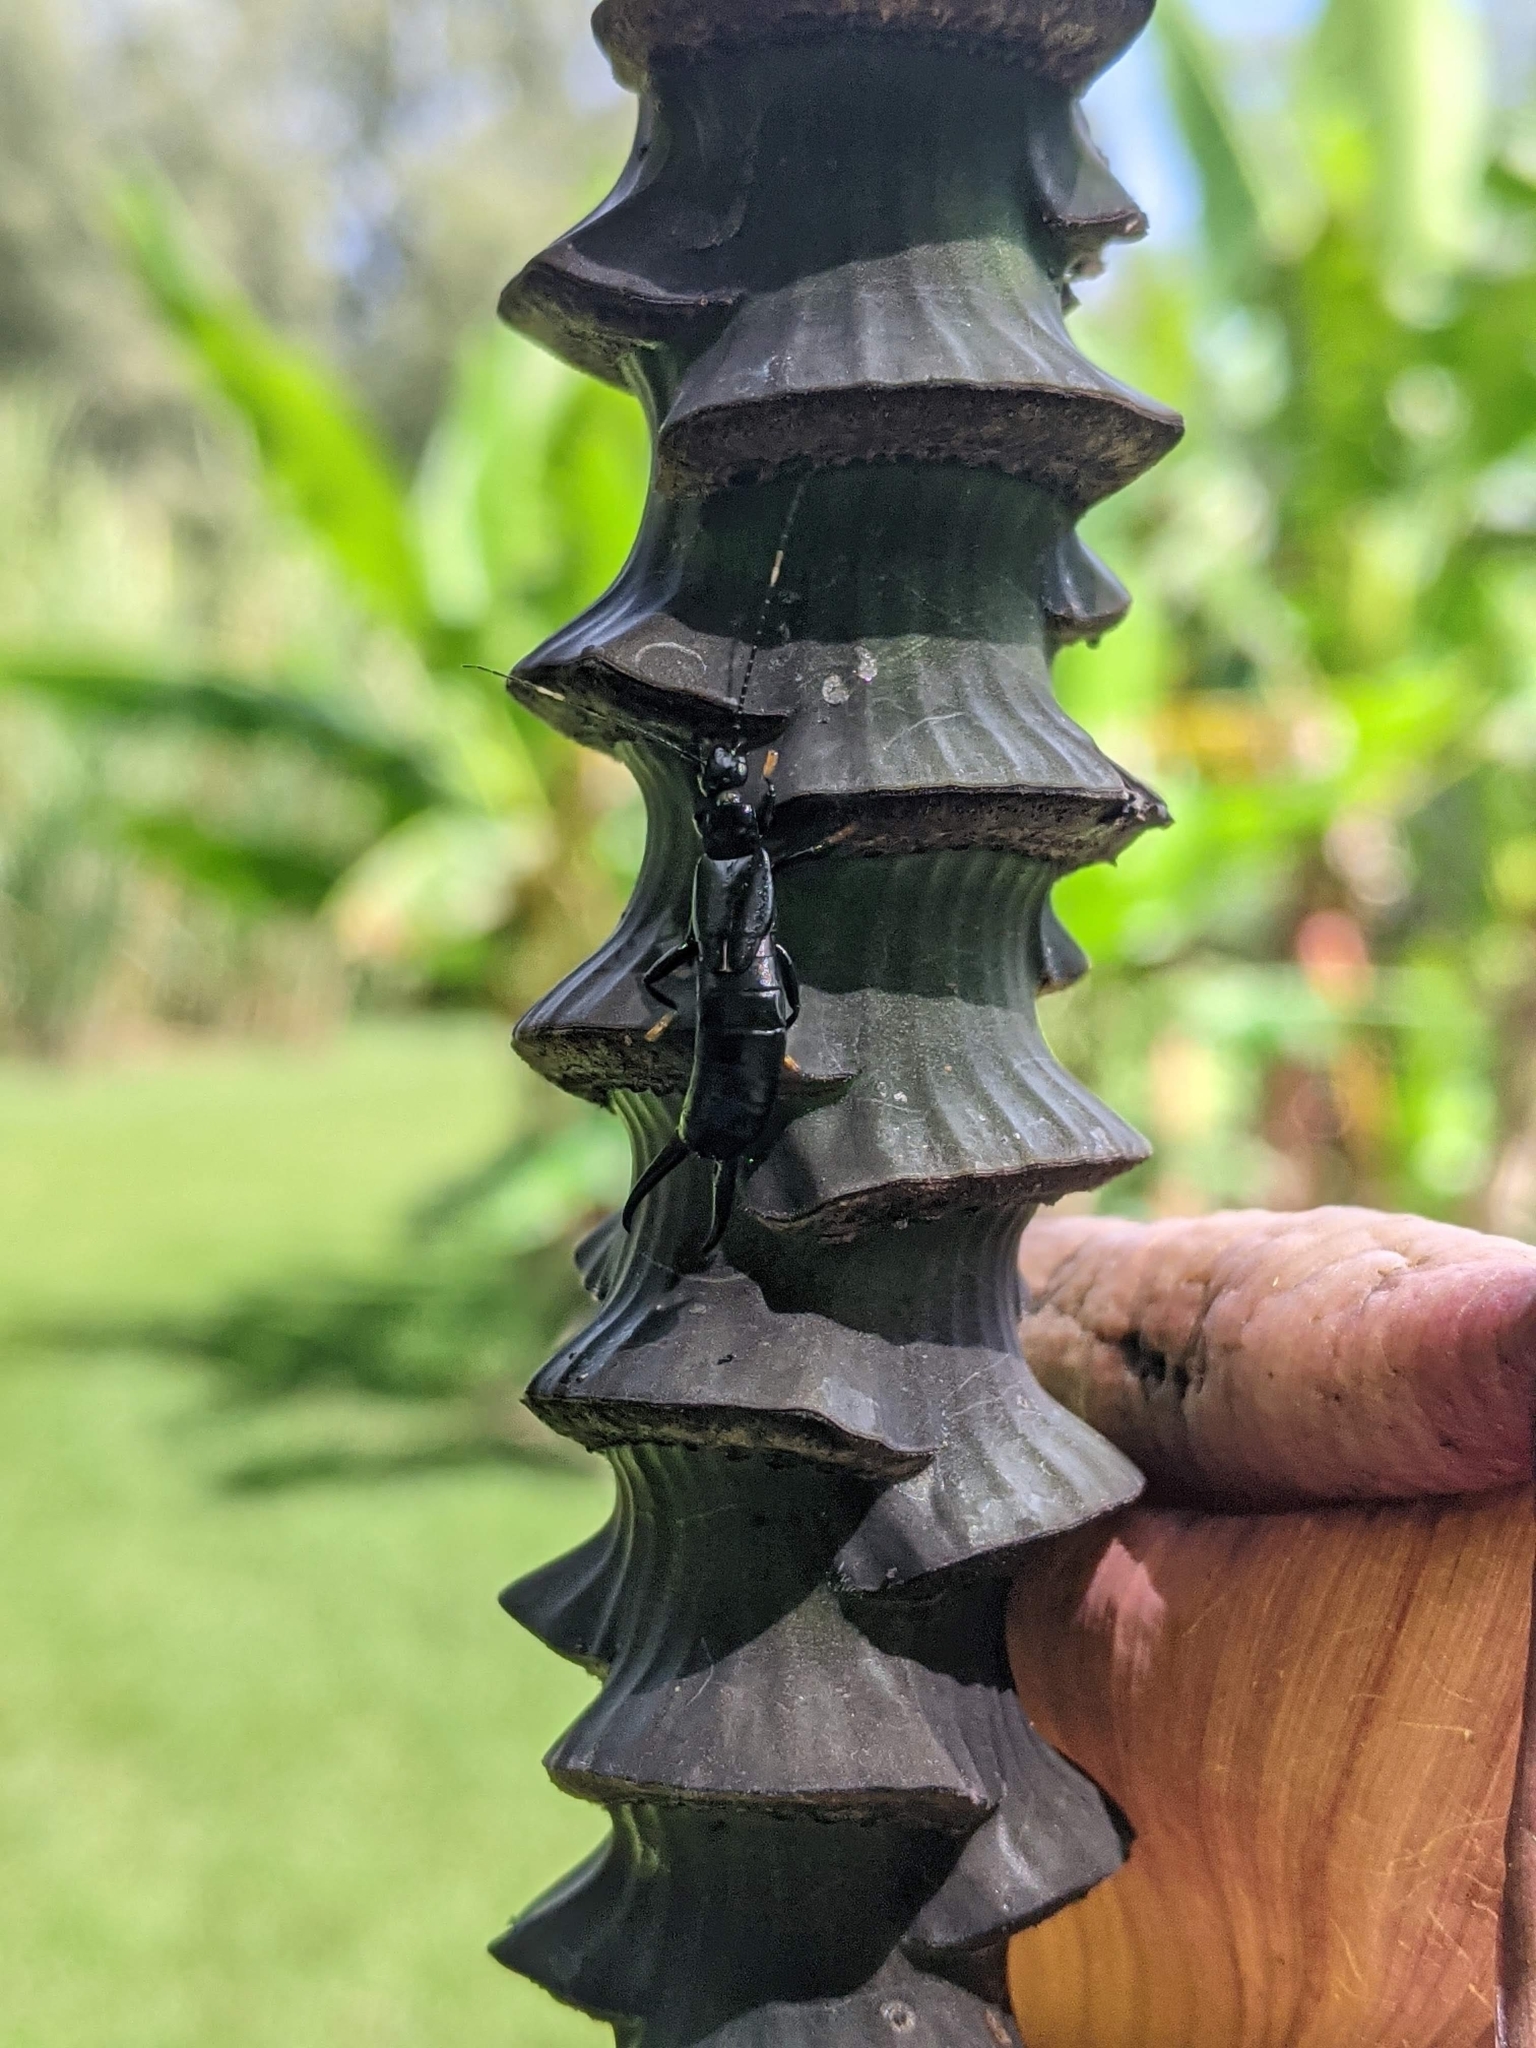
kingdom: Animalia
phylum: Arthropoda
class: Insecta
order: Dermaptera
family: Chelisochidae
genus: Chelisoches
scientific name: Chelisoches morio
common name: Black earwig
